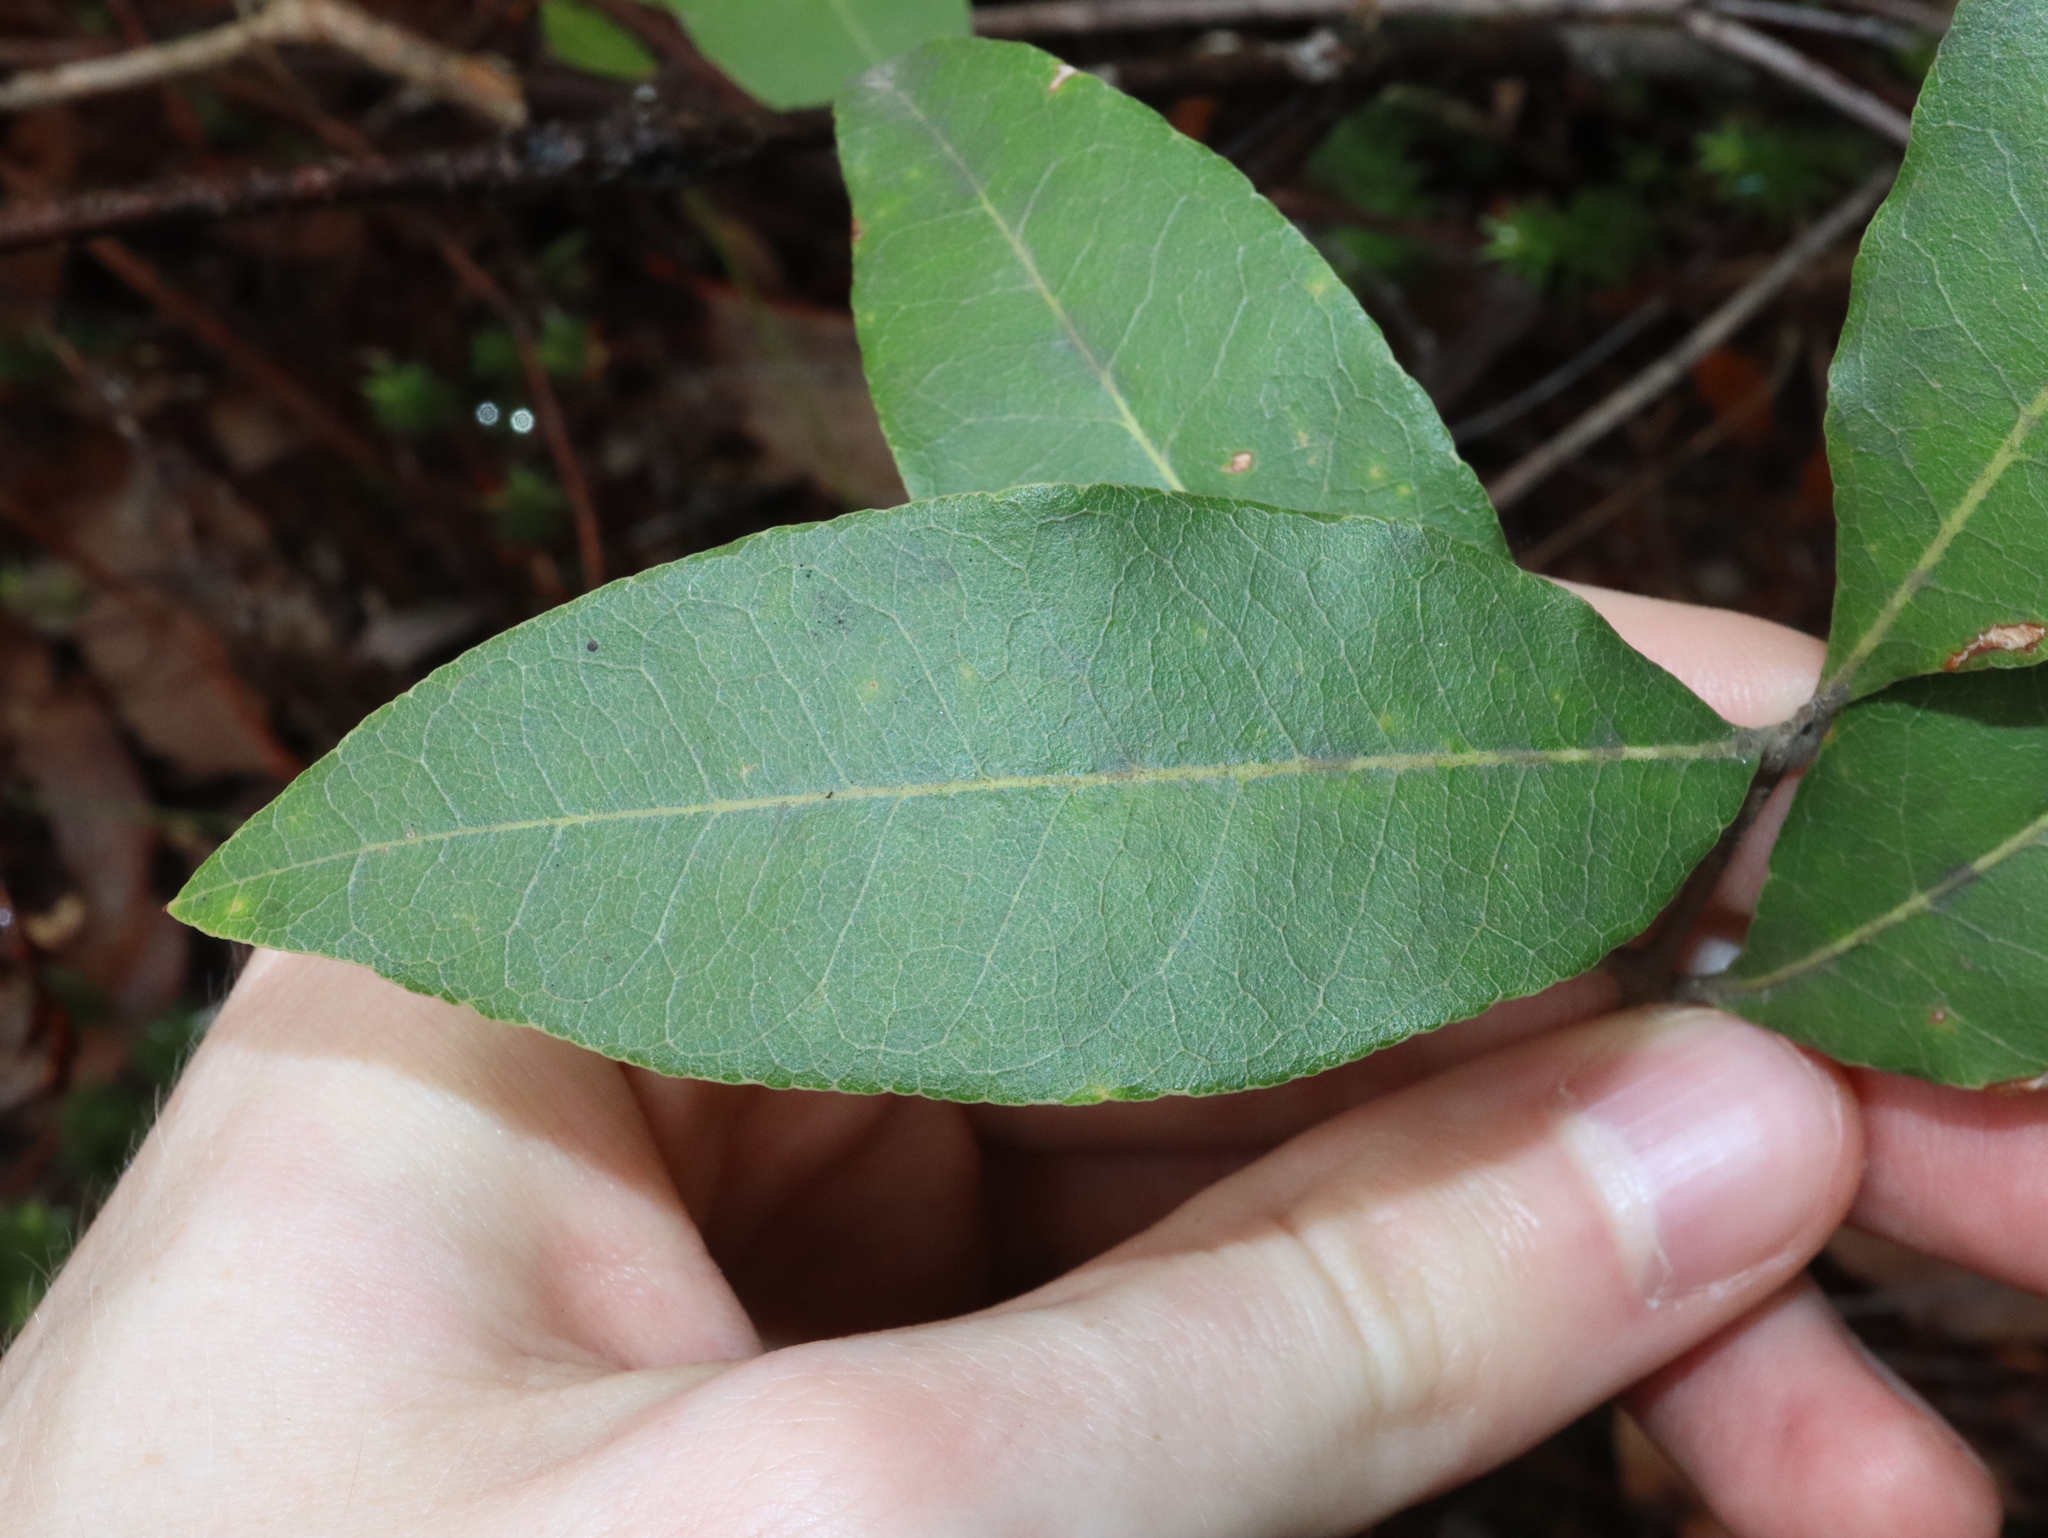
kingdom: Plantae
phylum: Tracheophyta
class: Magnoliopsida
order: Lamiales
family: Oleaceae
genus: Notelaea
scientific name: Notelaea longifolia
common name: Large mock olive
